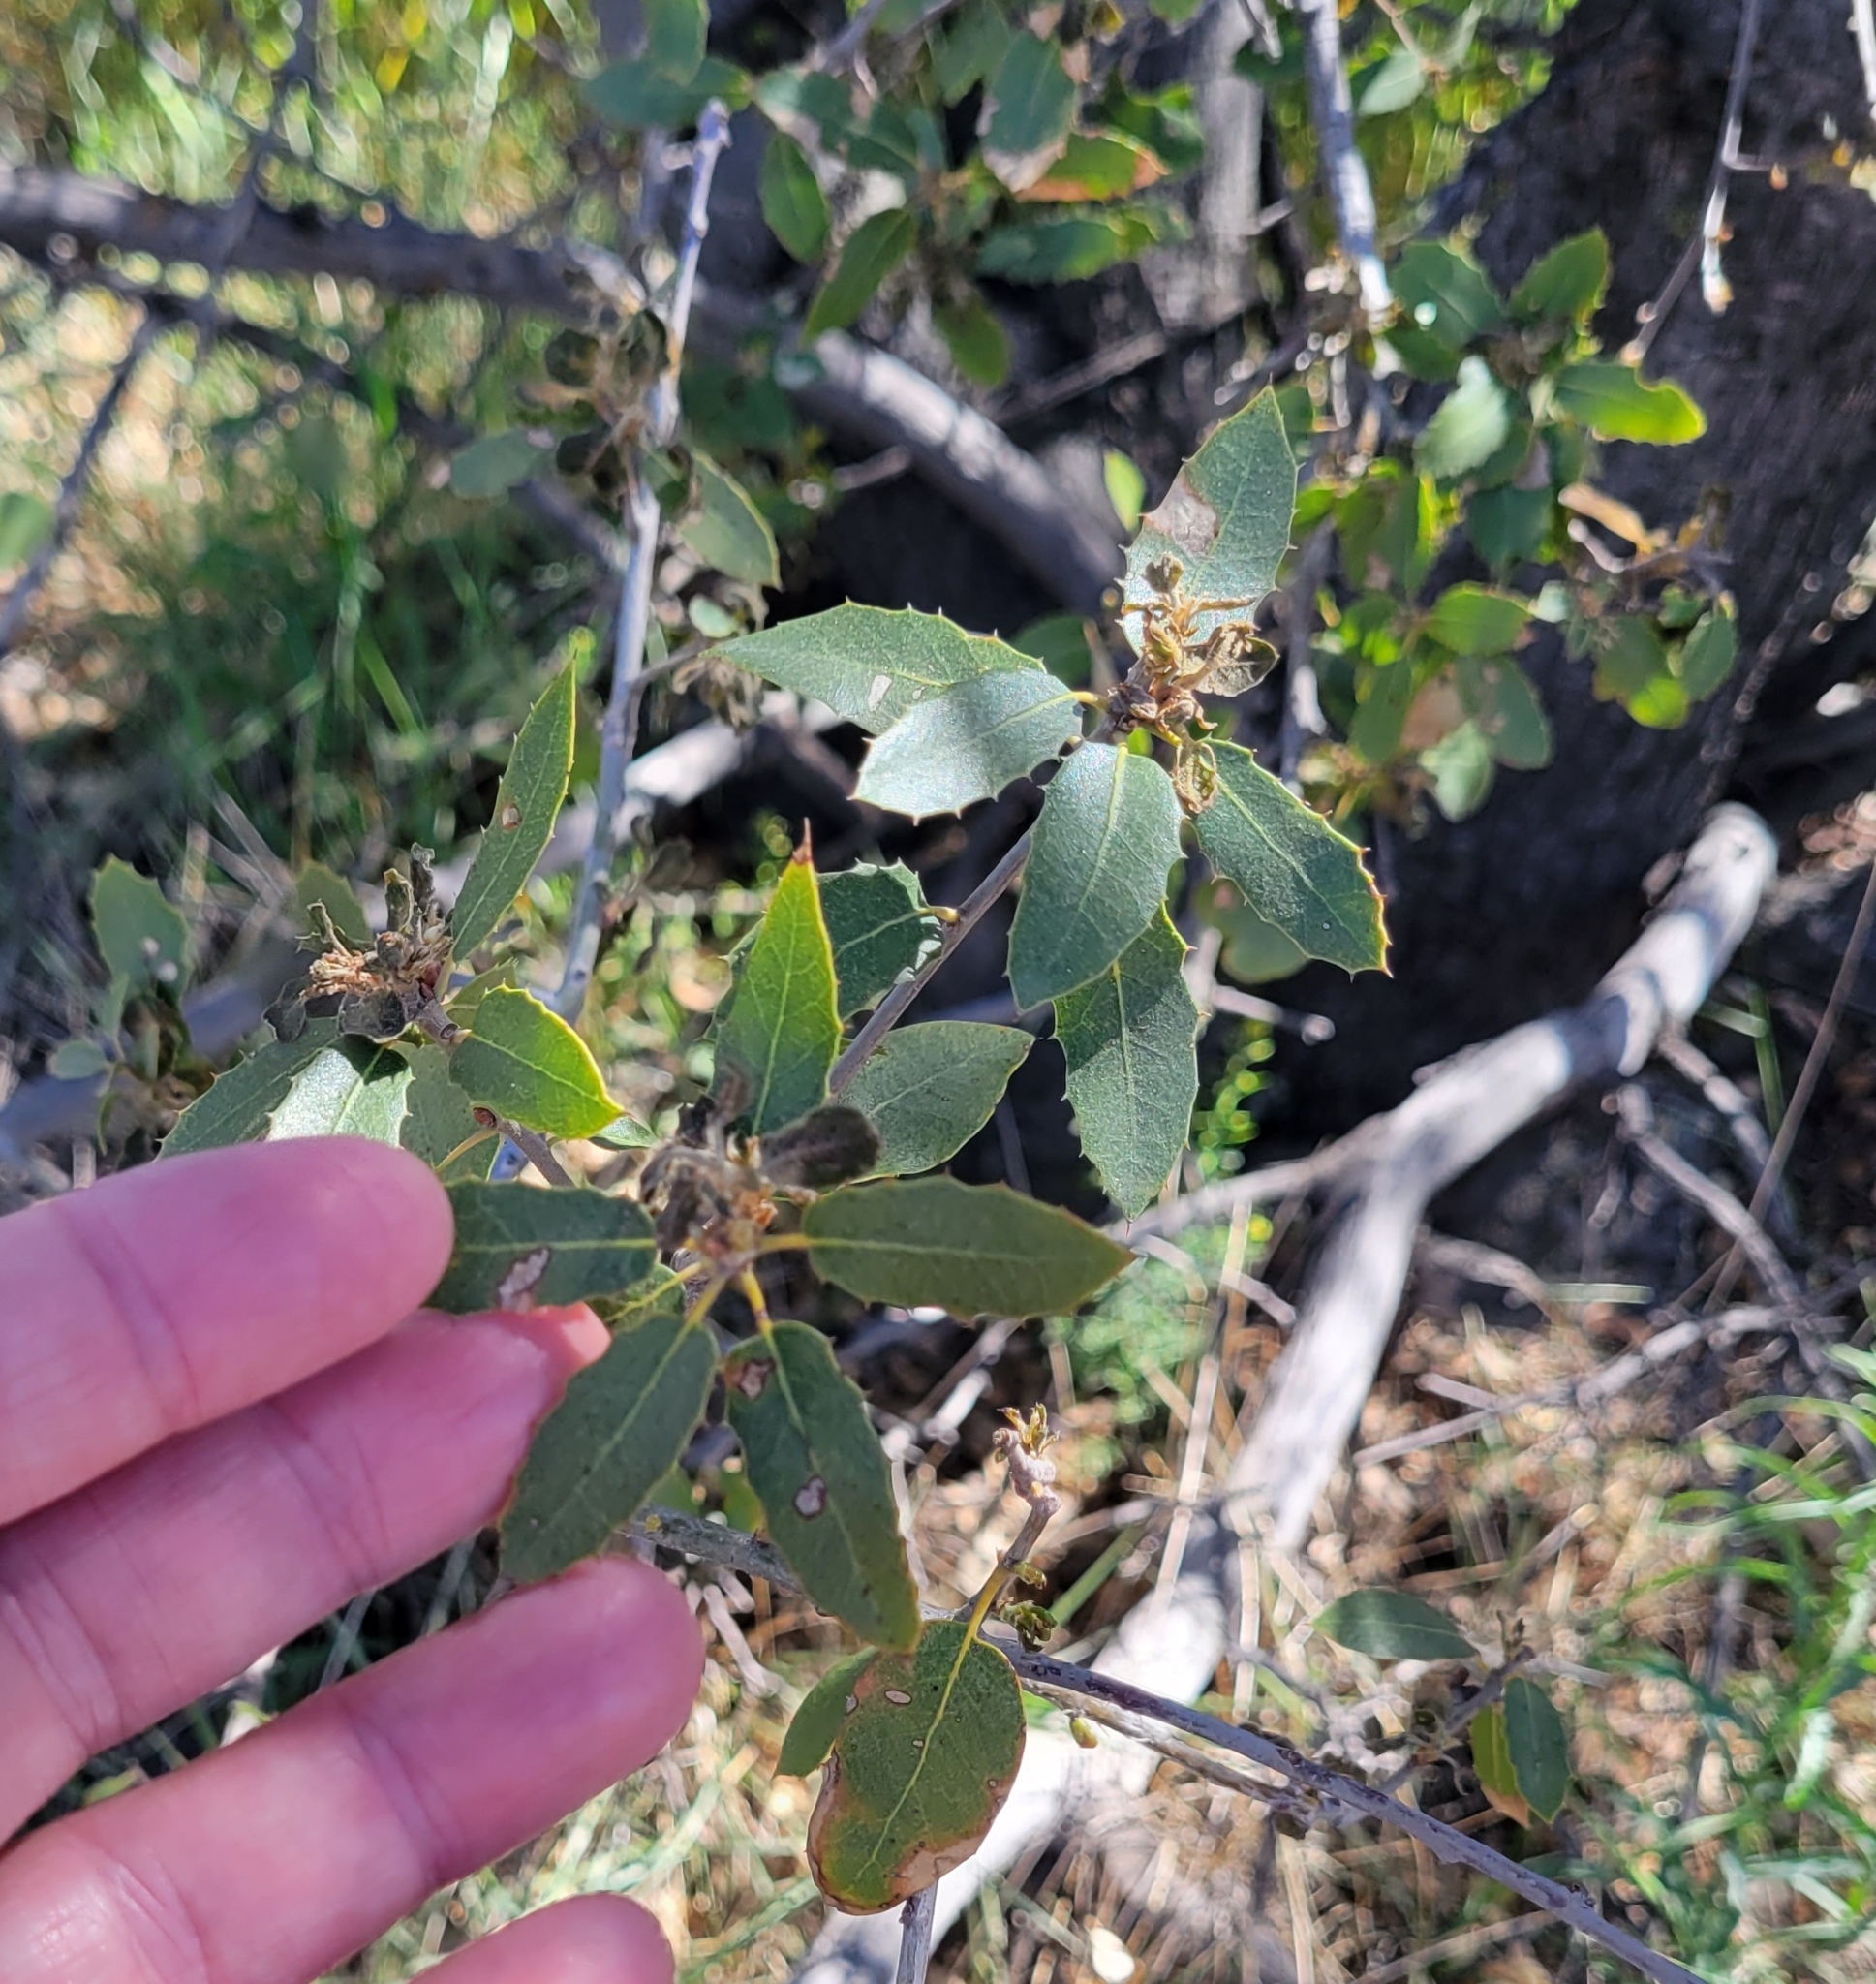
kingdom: Plantae
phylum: Tracheophyta
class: Magnoliopsida
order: Fagales
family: Fagaceae
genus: Quercus
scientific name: Quercus wislizeni
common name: Interior live oak
